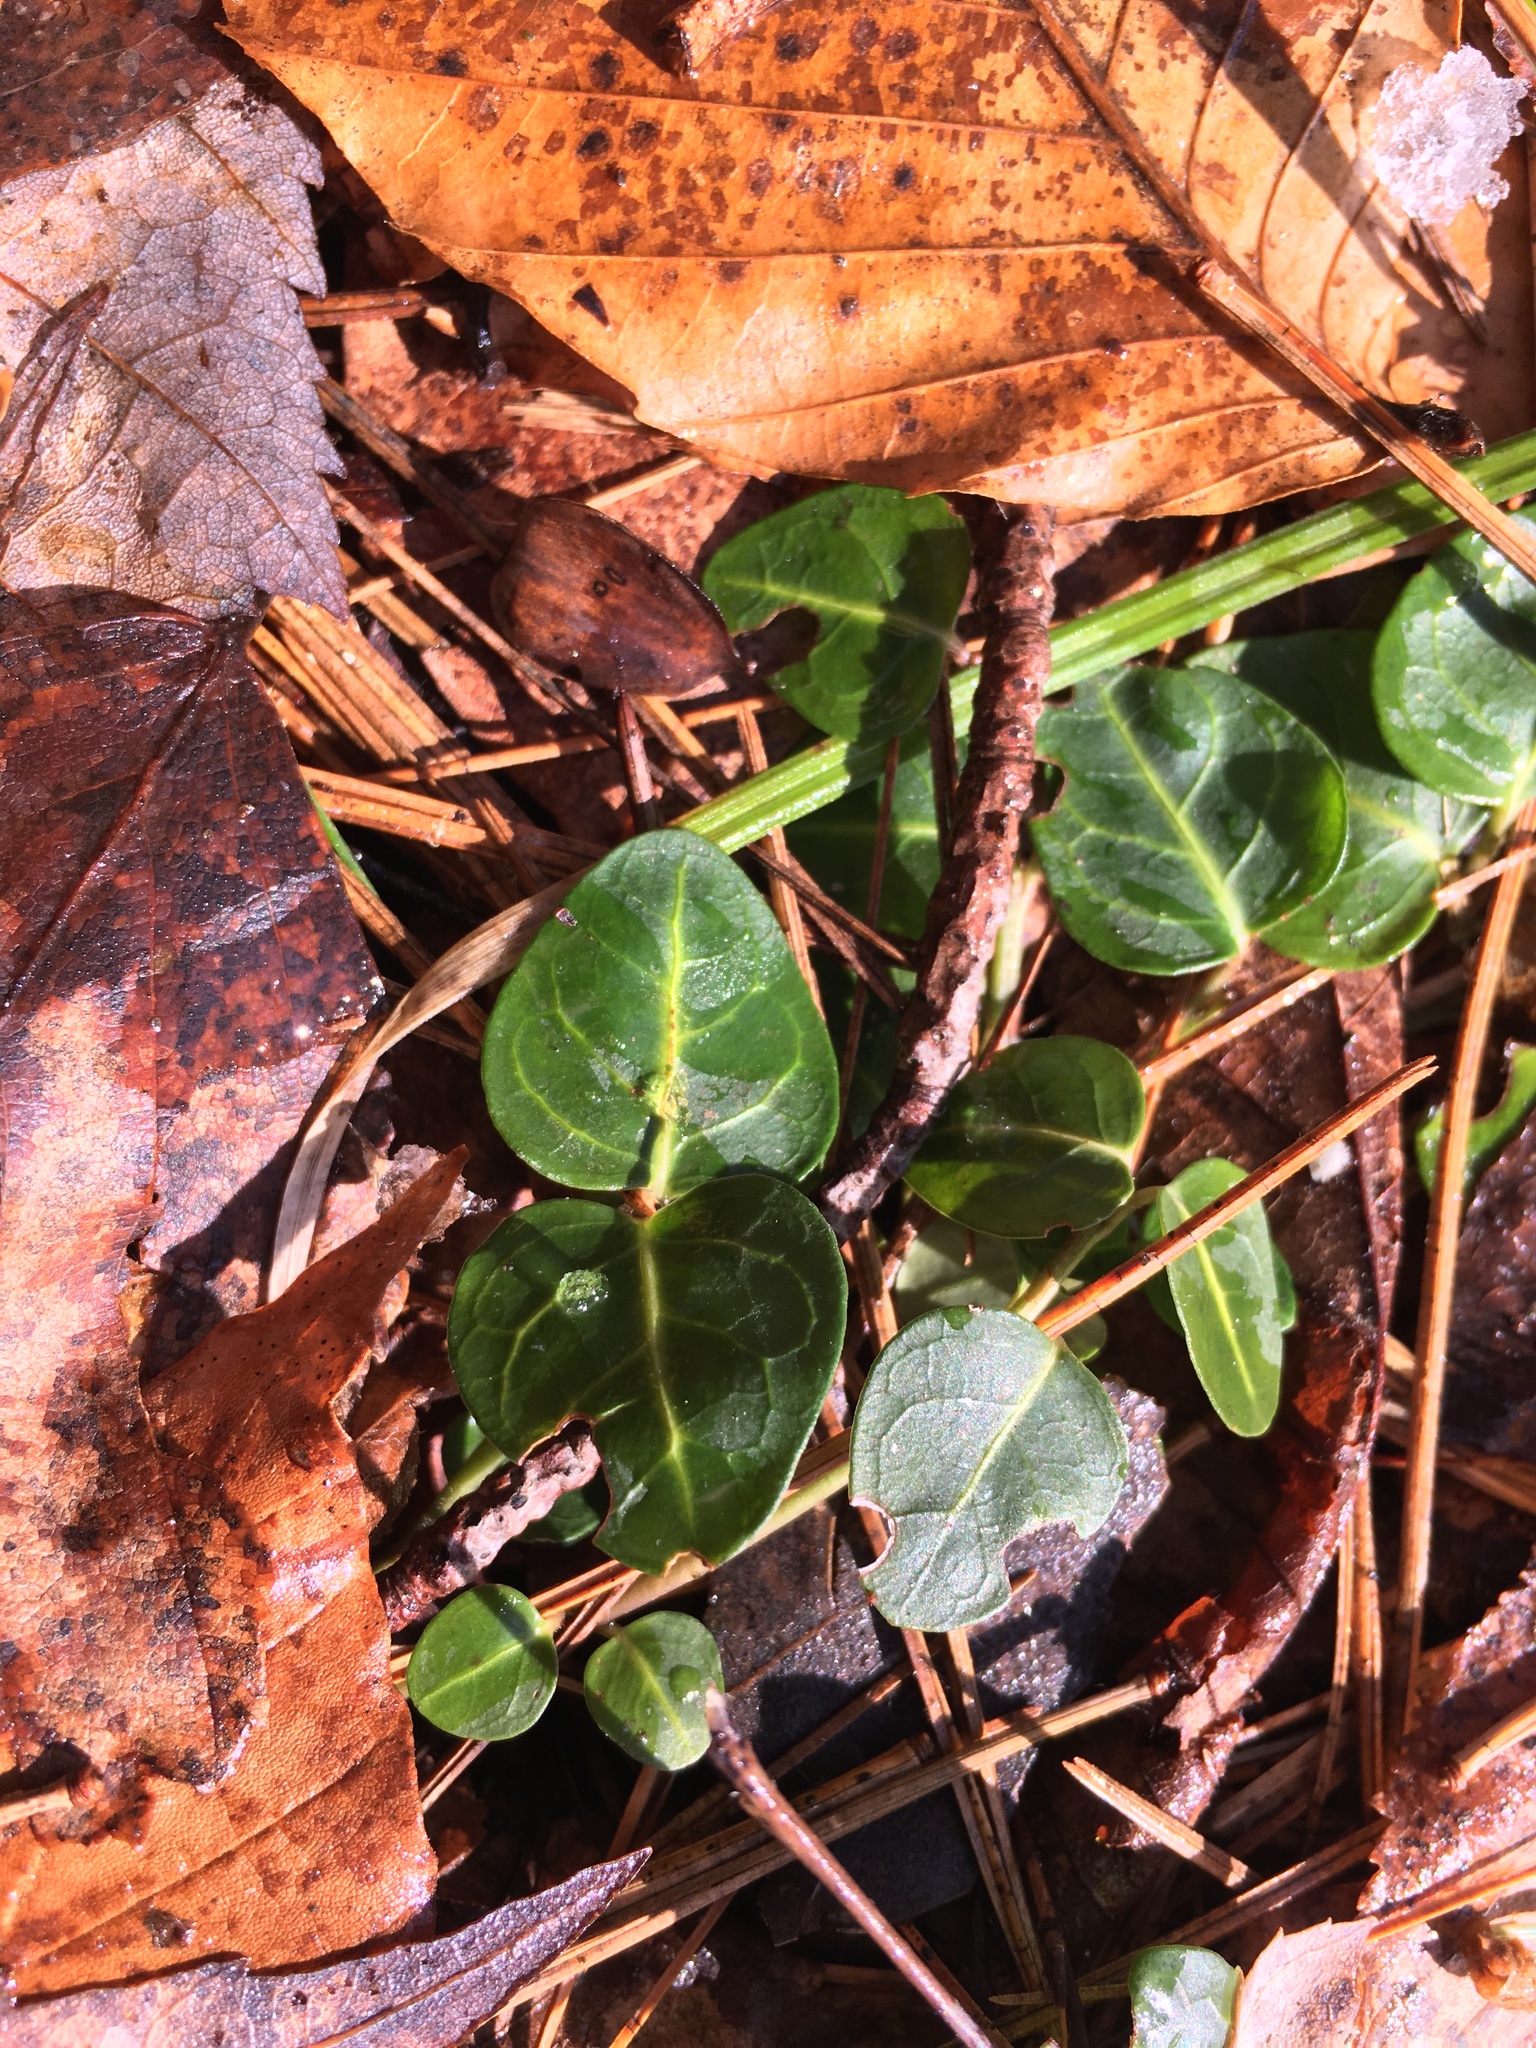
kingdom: Plantae
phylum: Tracheophyta
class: Magnoliopsida
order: Gentianales
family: Rubiaceae
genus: Mitchella
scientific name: Mitchella repens
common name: Partridge-berry
